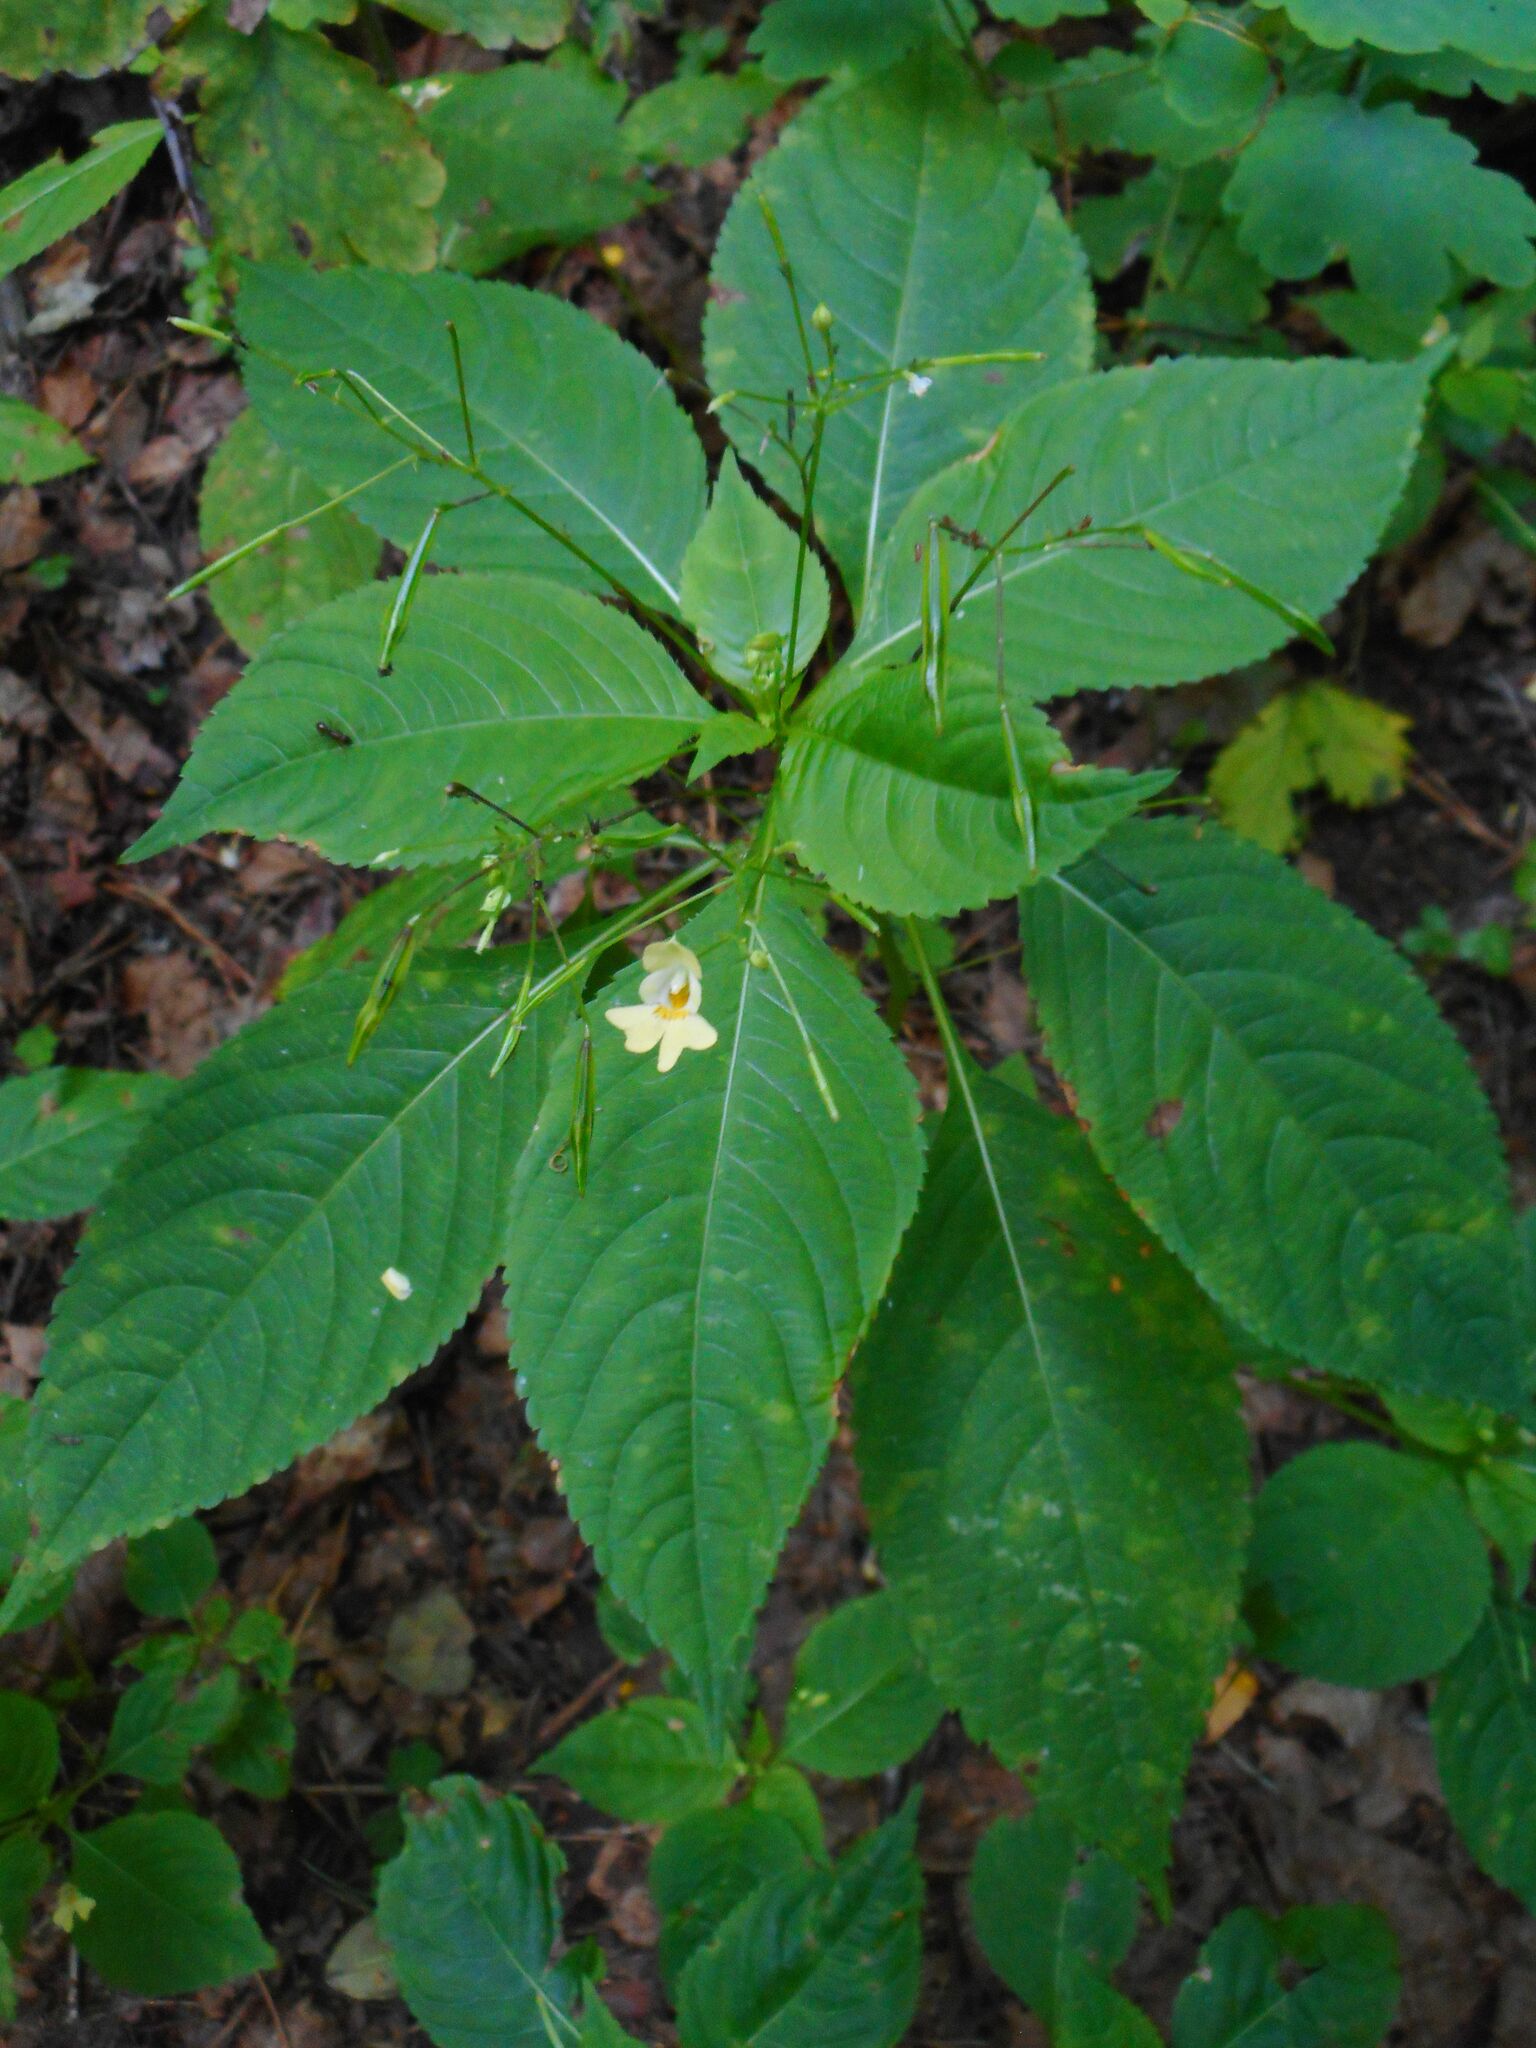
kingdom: Plantae
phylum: Tracheophyta
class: Magnoliopsida
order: Ericales
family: Balsaminaceae
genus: Impatiens
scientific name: Impatiens parviflora
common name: Small balsam
